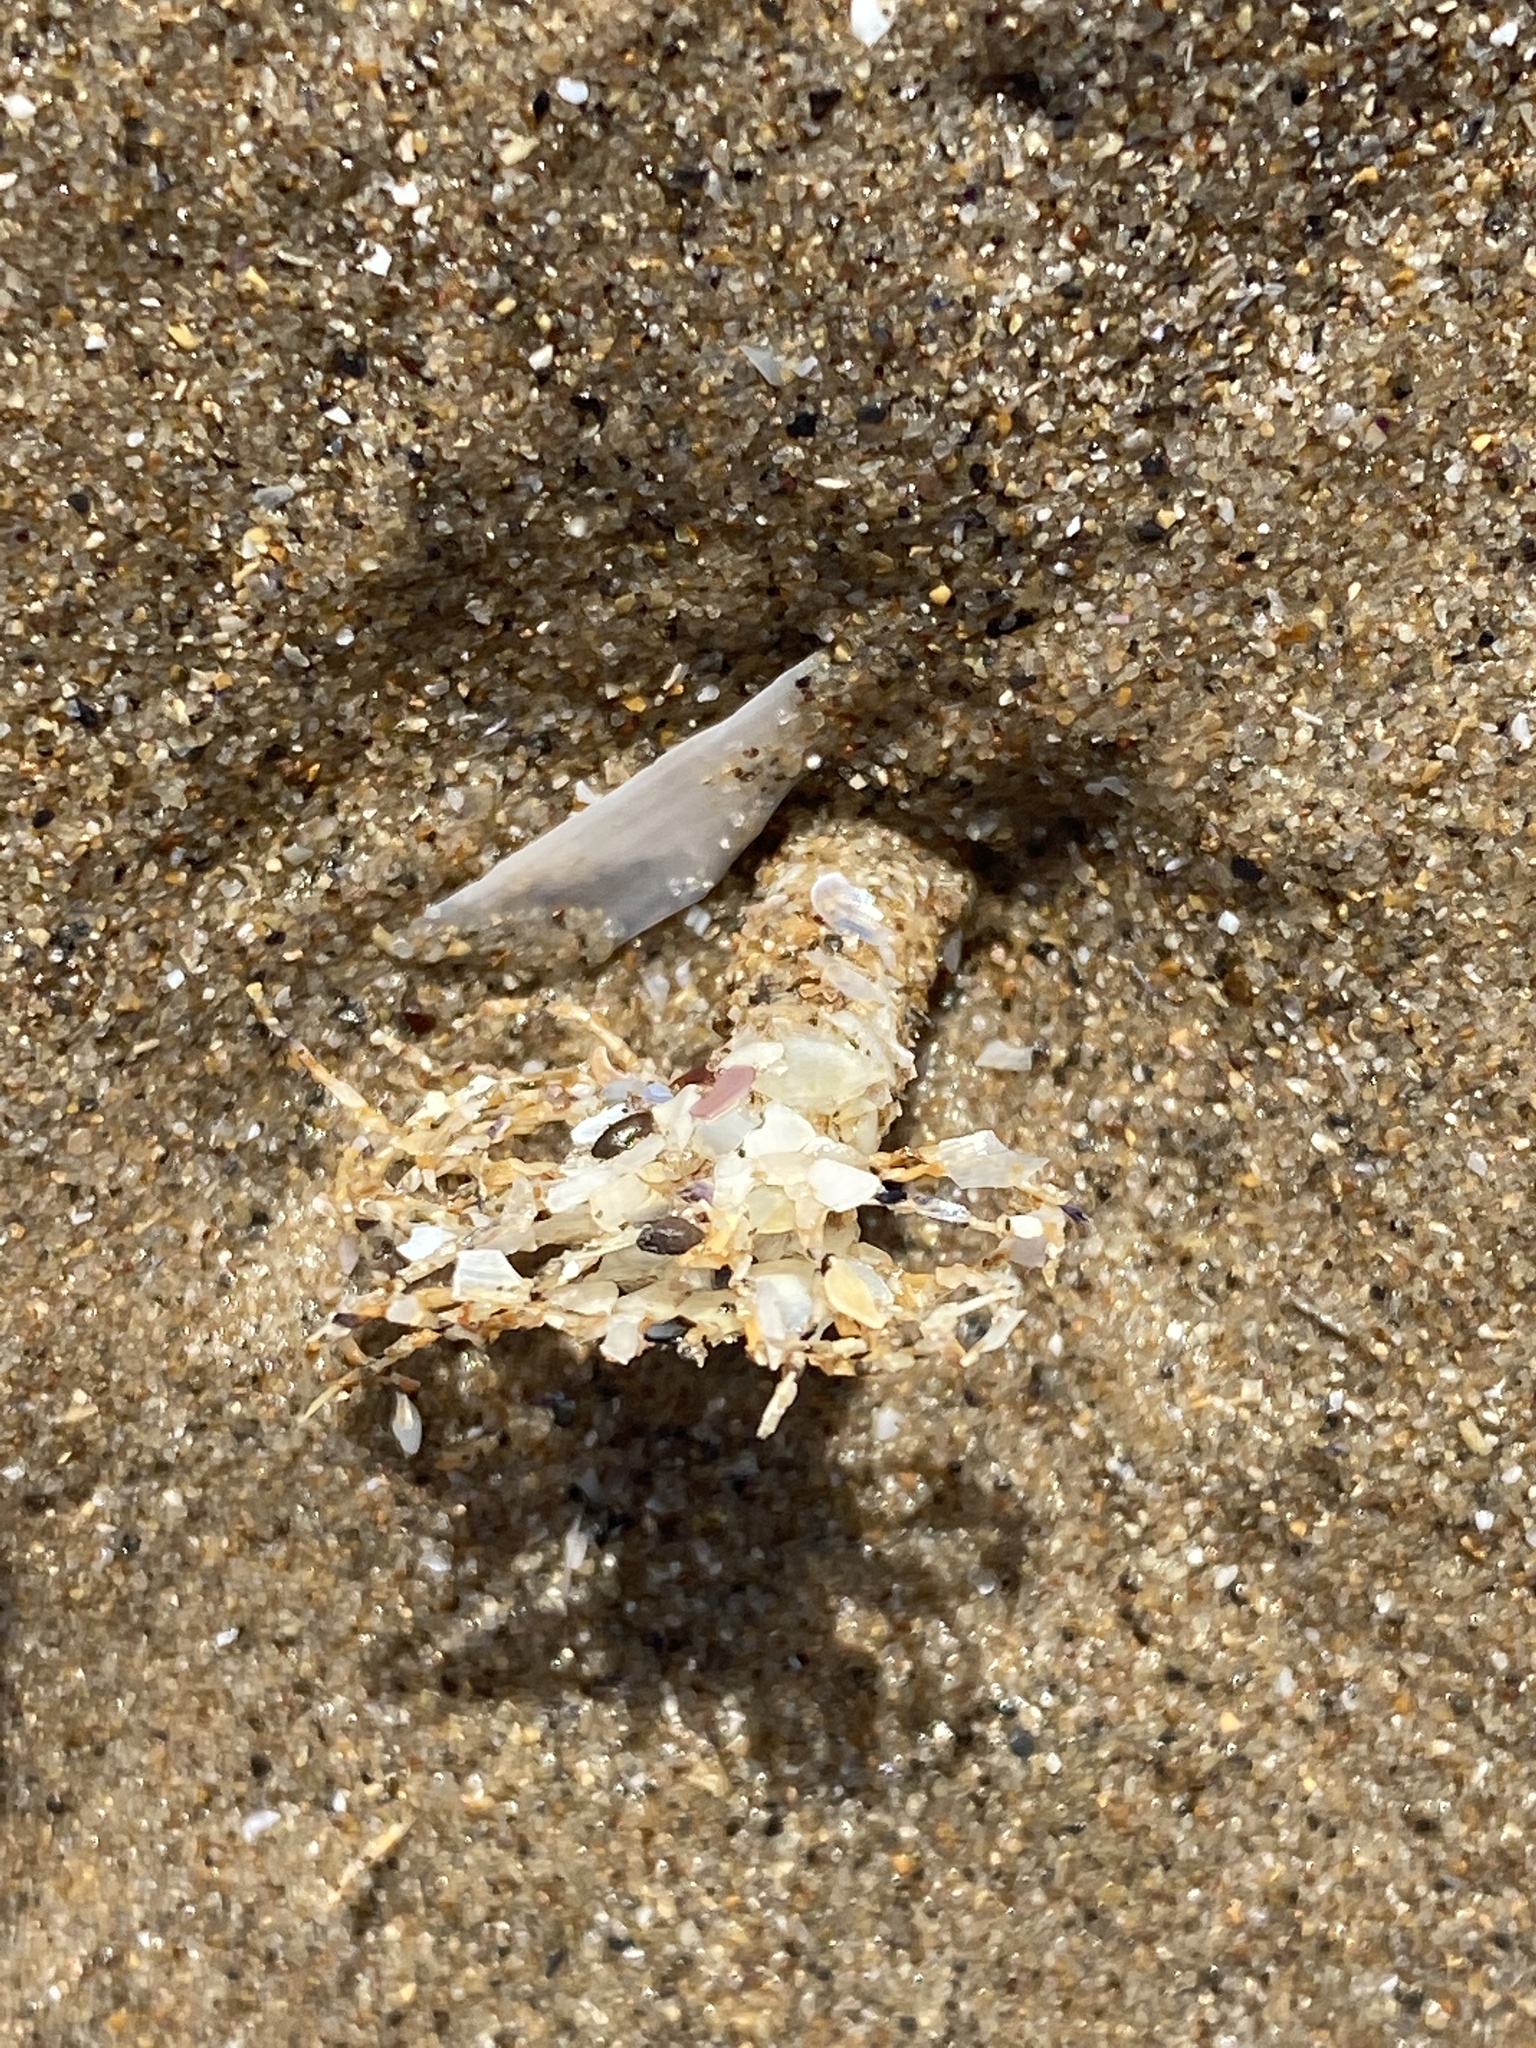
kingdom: Animalia
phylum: Annelida
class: Polychaeta
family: Terebellidae
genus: Lanice
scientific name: Lanice conchilega
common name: Sand mason
